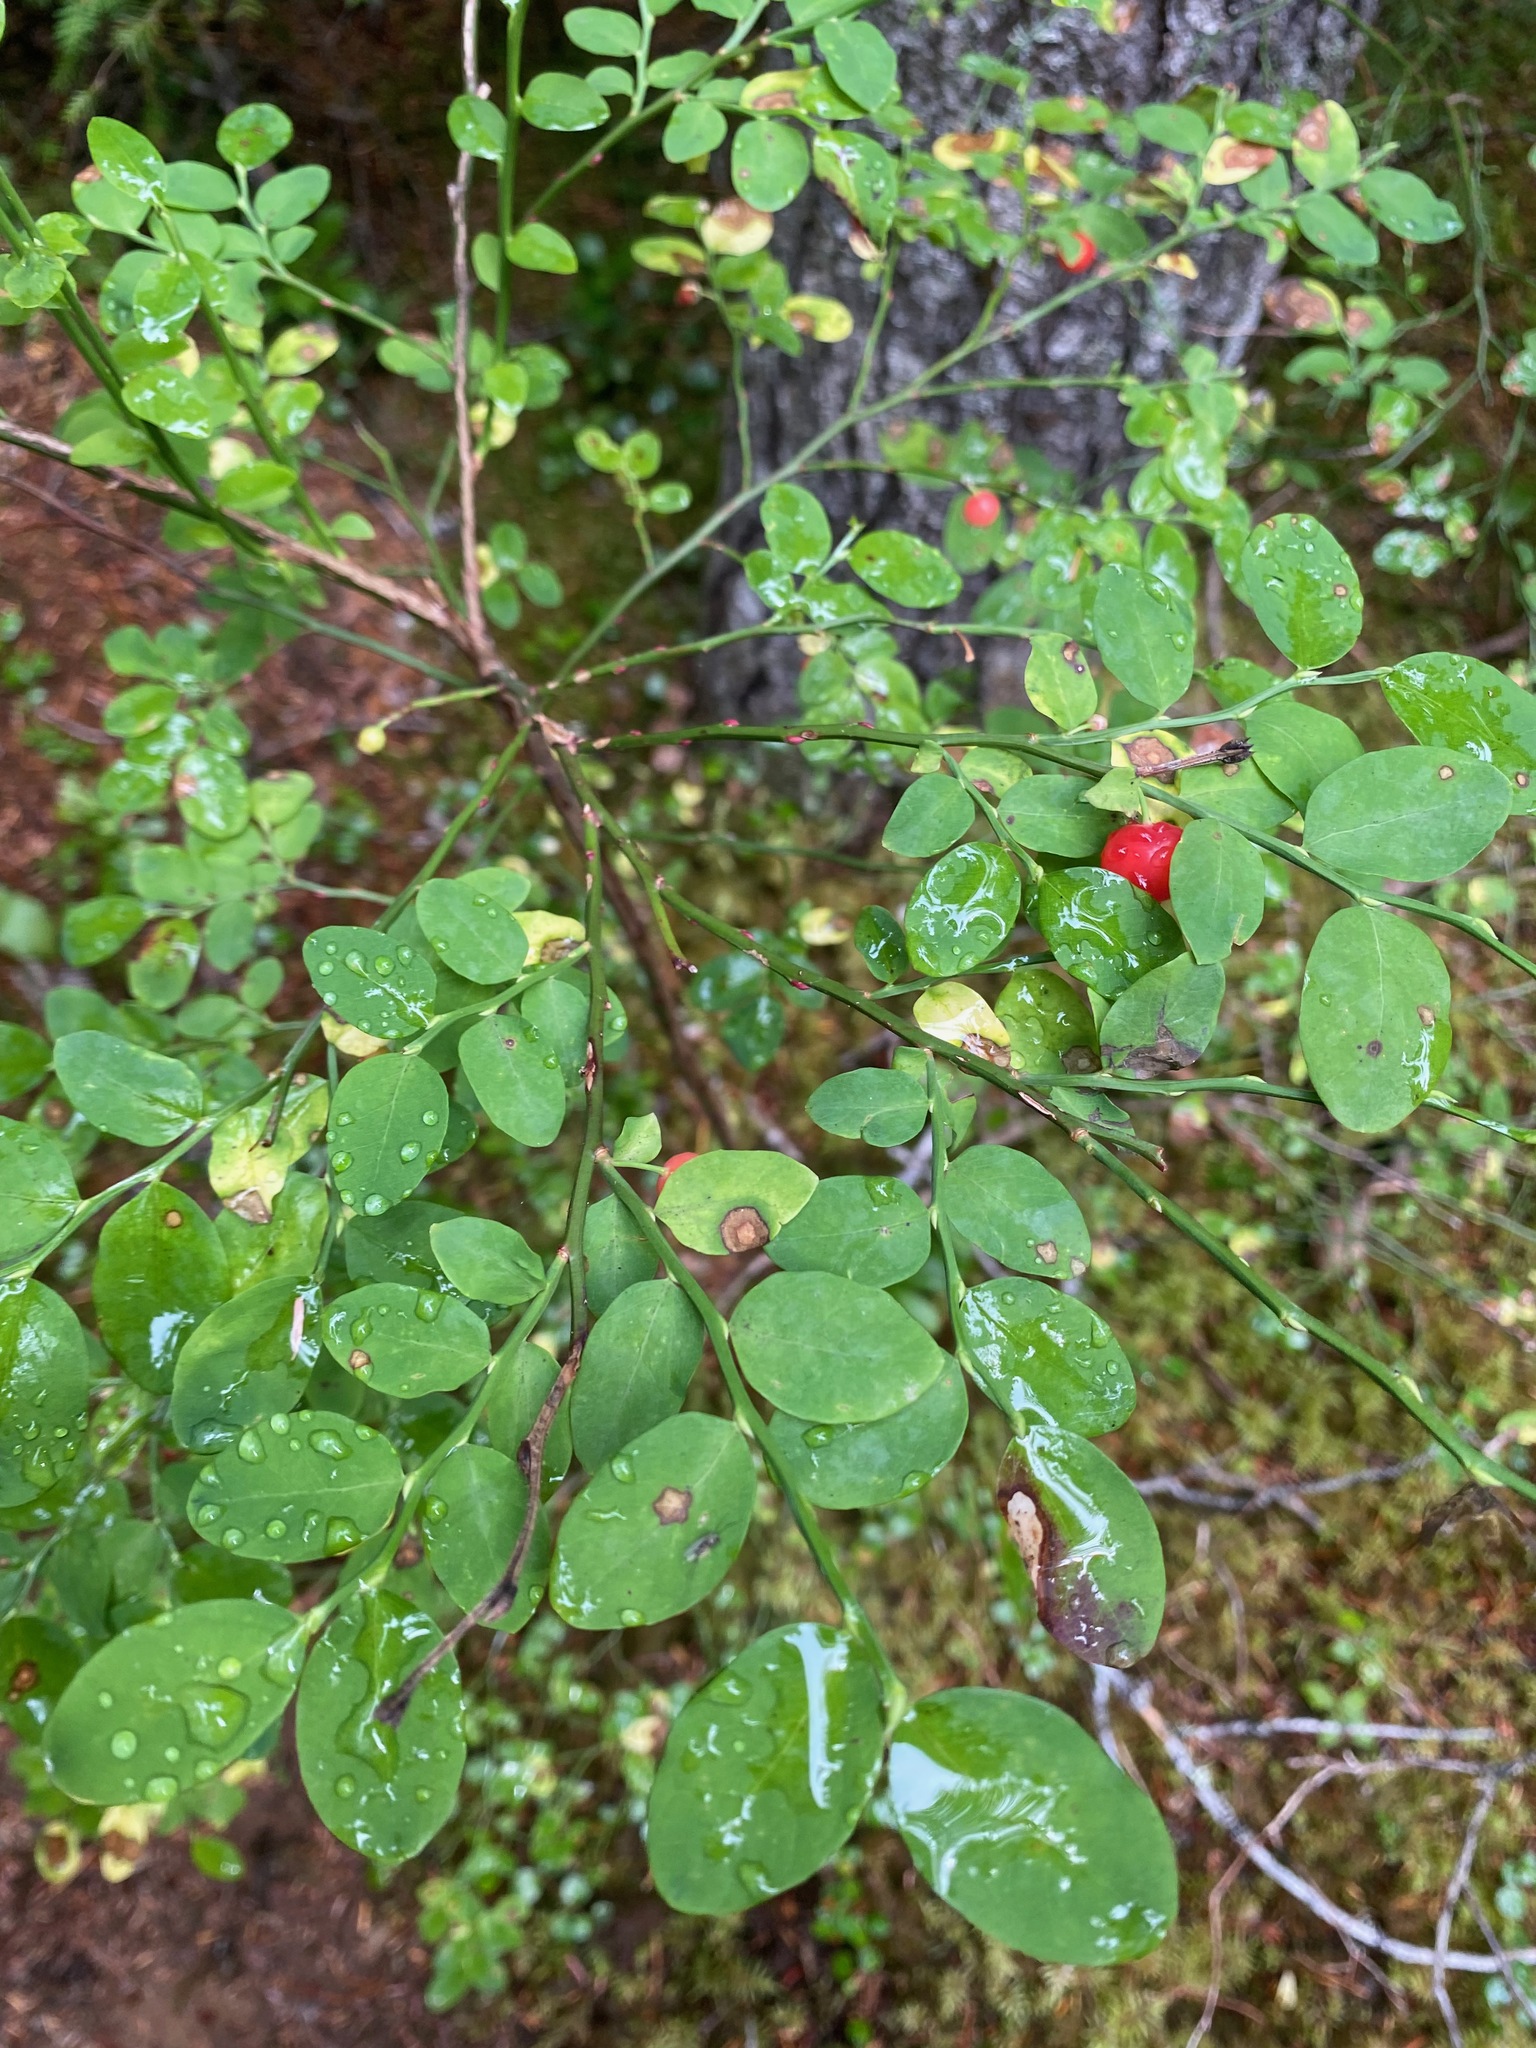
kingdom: Plantae
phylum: Tracheophyta
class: Magnoliopsida
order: Ericales
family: Ericaceae
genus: Vaccinium
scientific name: Vaccinium parvifolium
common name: Red-huckleberry
